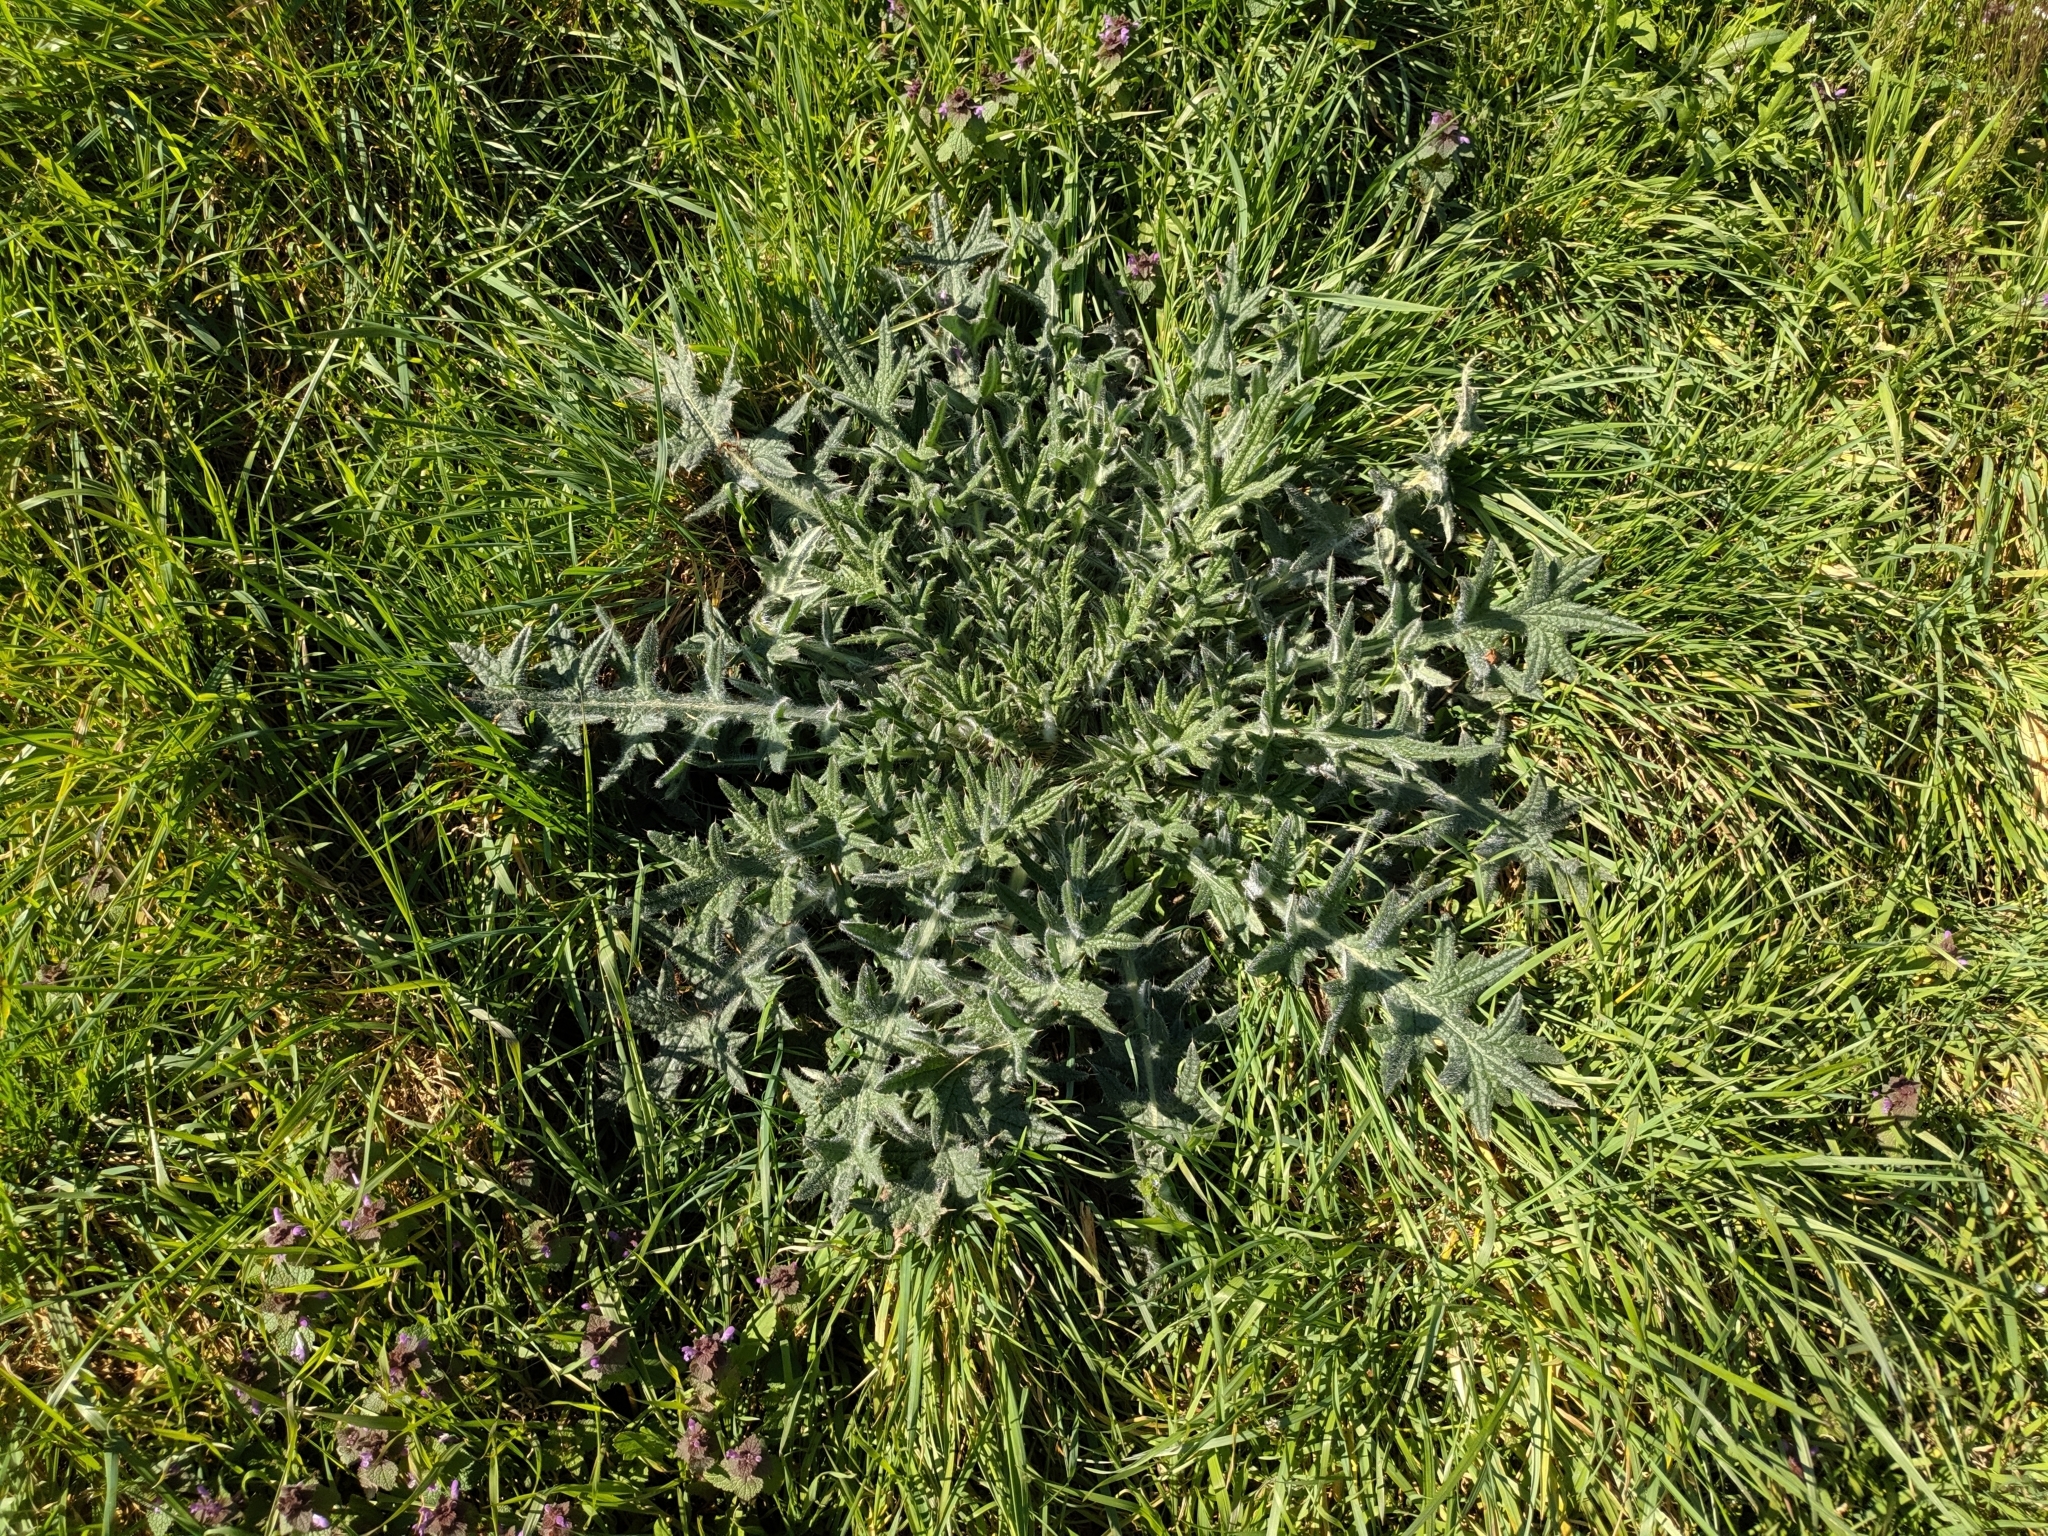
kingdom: Plantae
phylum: Tracheophyta
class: Magnoliopsida
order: Asterales
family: Asteraceae
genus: Cirsium
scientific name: Cirsium vulgare
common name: Bull thistle
